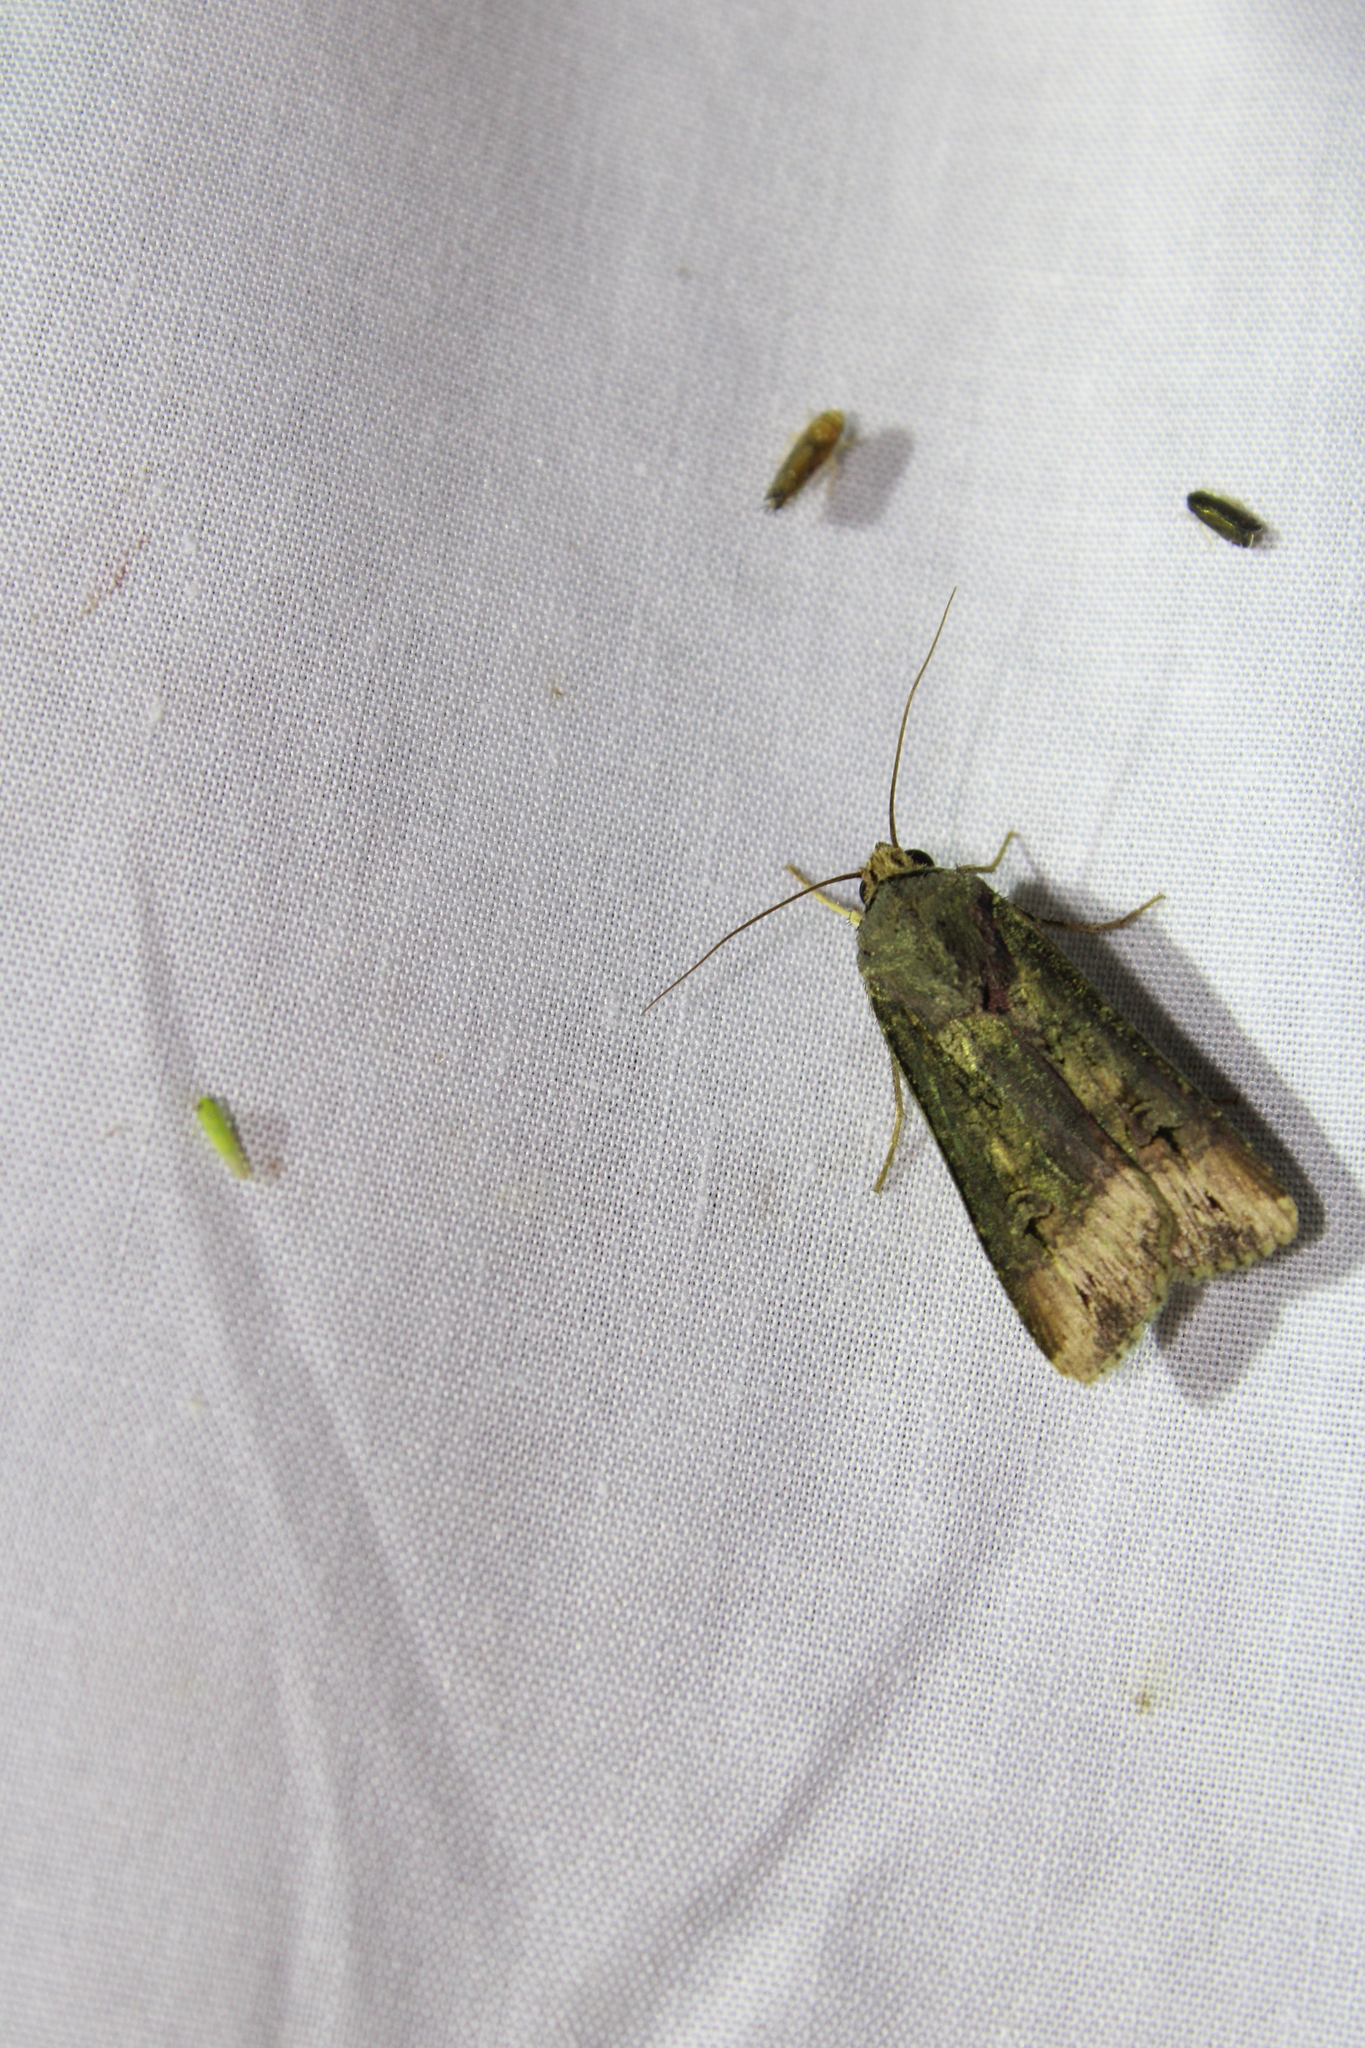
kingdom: Animalia
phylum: Arthropoda
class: Insecta
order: Lepidoptera
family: Noctuidae
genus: Agrotis
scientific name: Agrotis ipsilon
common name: Dark sword-grass
